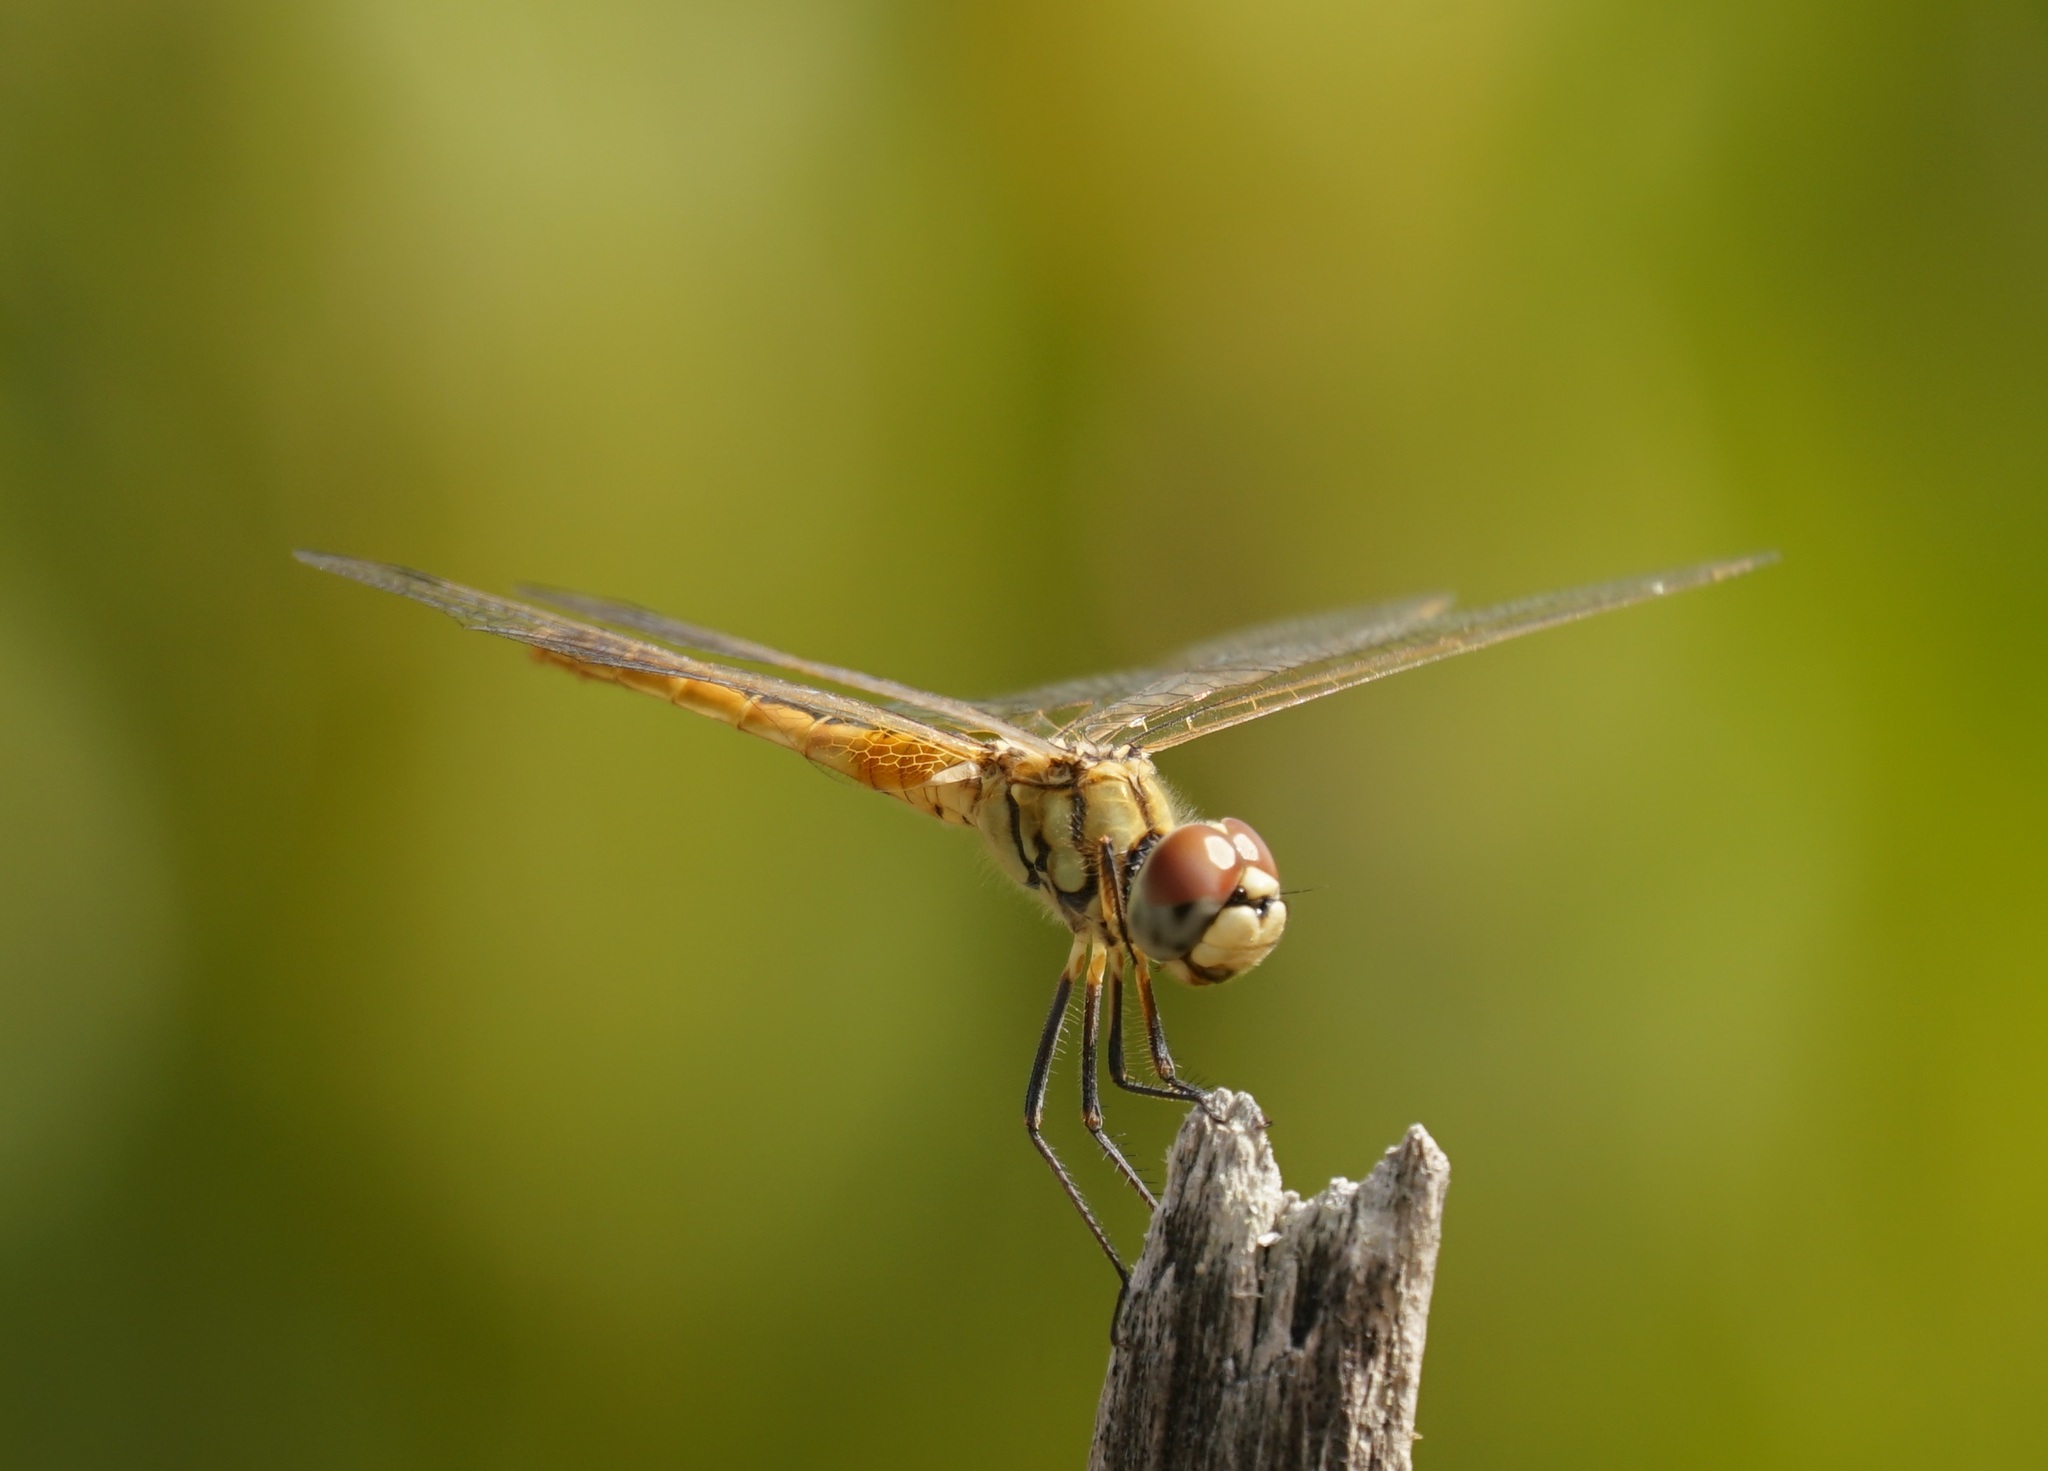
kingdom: Animalia
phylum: Arthropoda
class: Insecta
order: Odonata
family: Libellulidae
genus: Macrodiplax
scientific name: Macrodiplax cora
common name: Coastal glider
